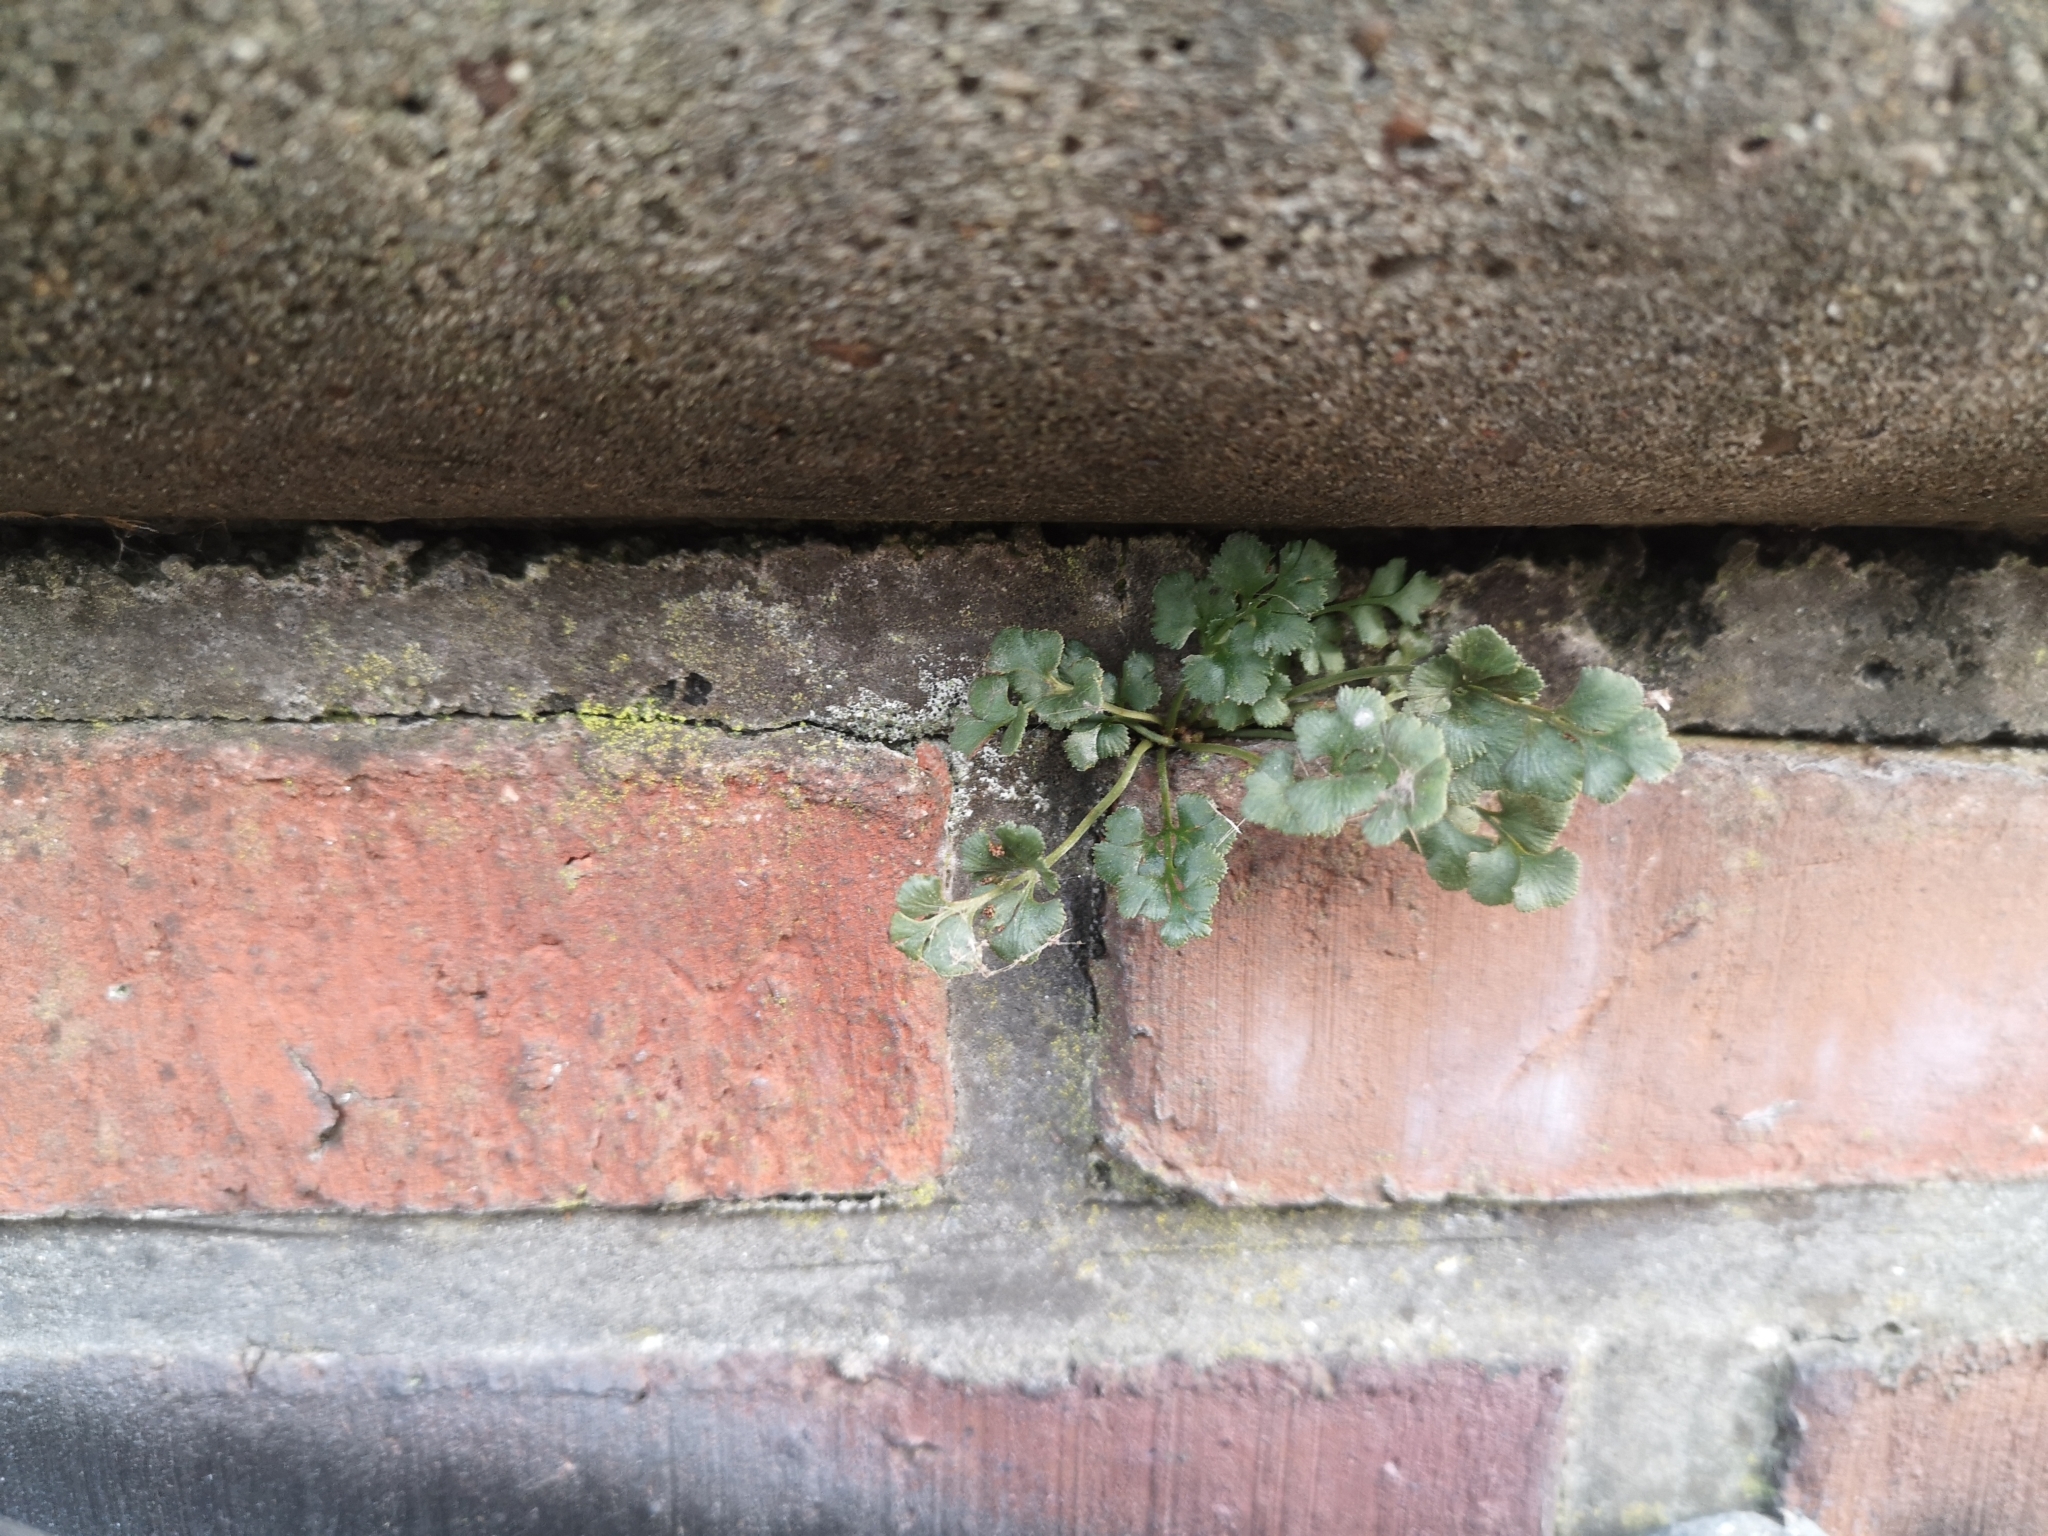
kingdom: Plantae
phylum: Tracheophyta
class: Polypodiopsida
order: Polypodiales
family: Aspleniaceae
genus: Asplenium
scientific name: Asplenium ruta-muraria
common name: Wall-rue
